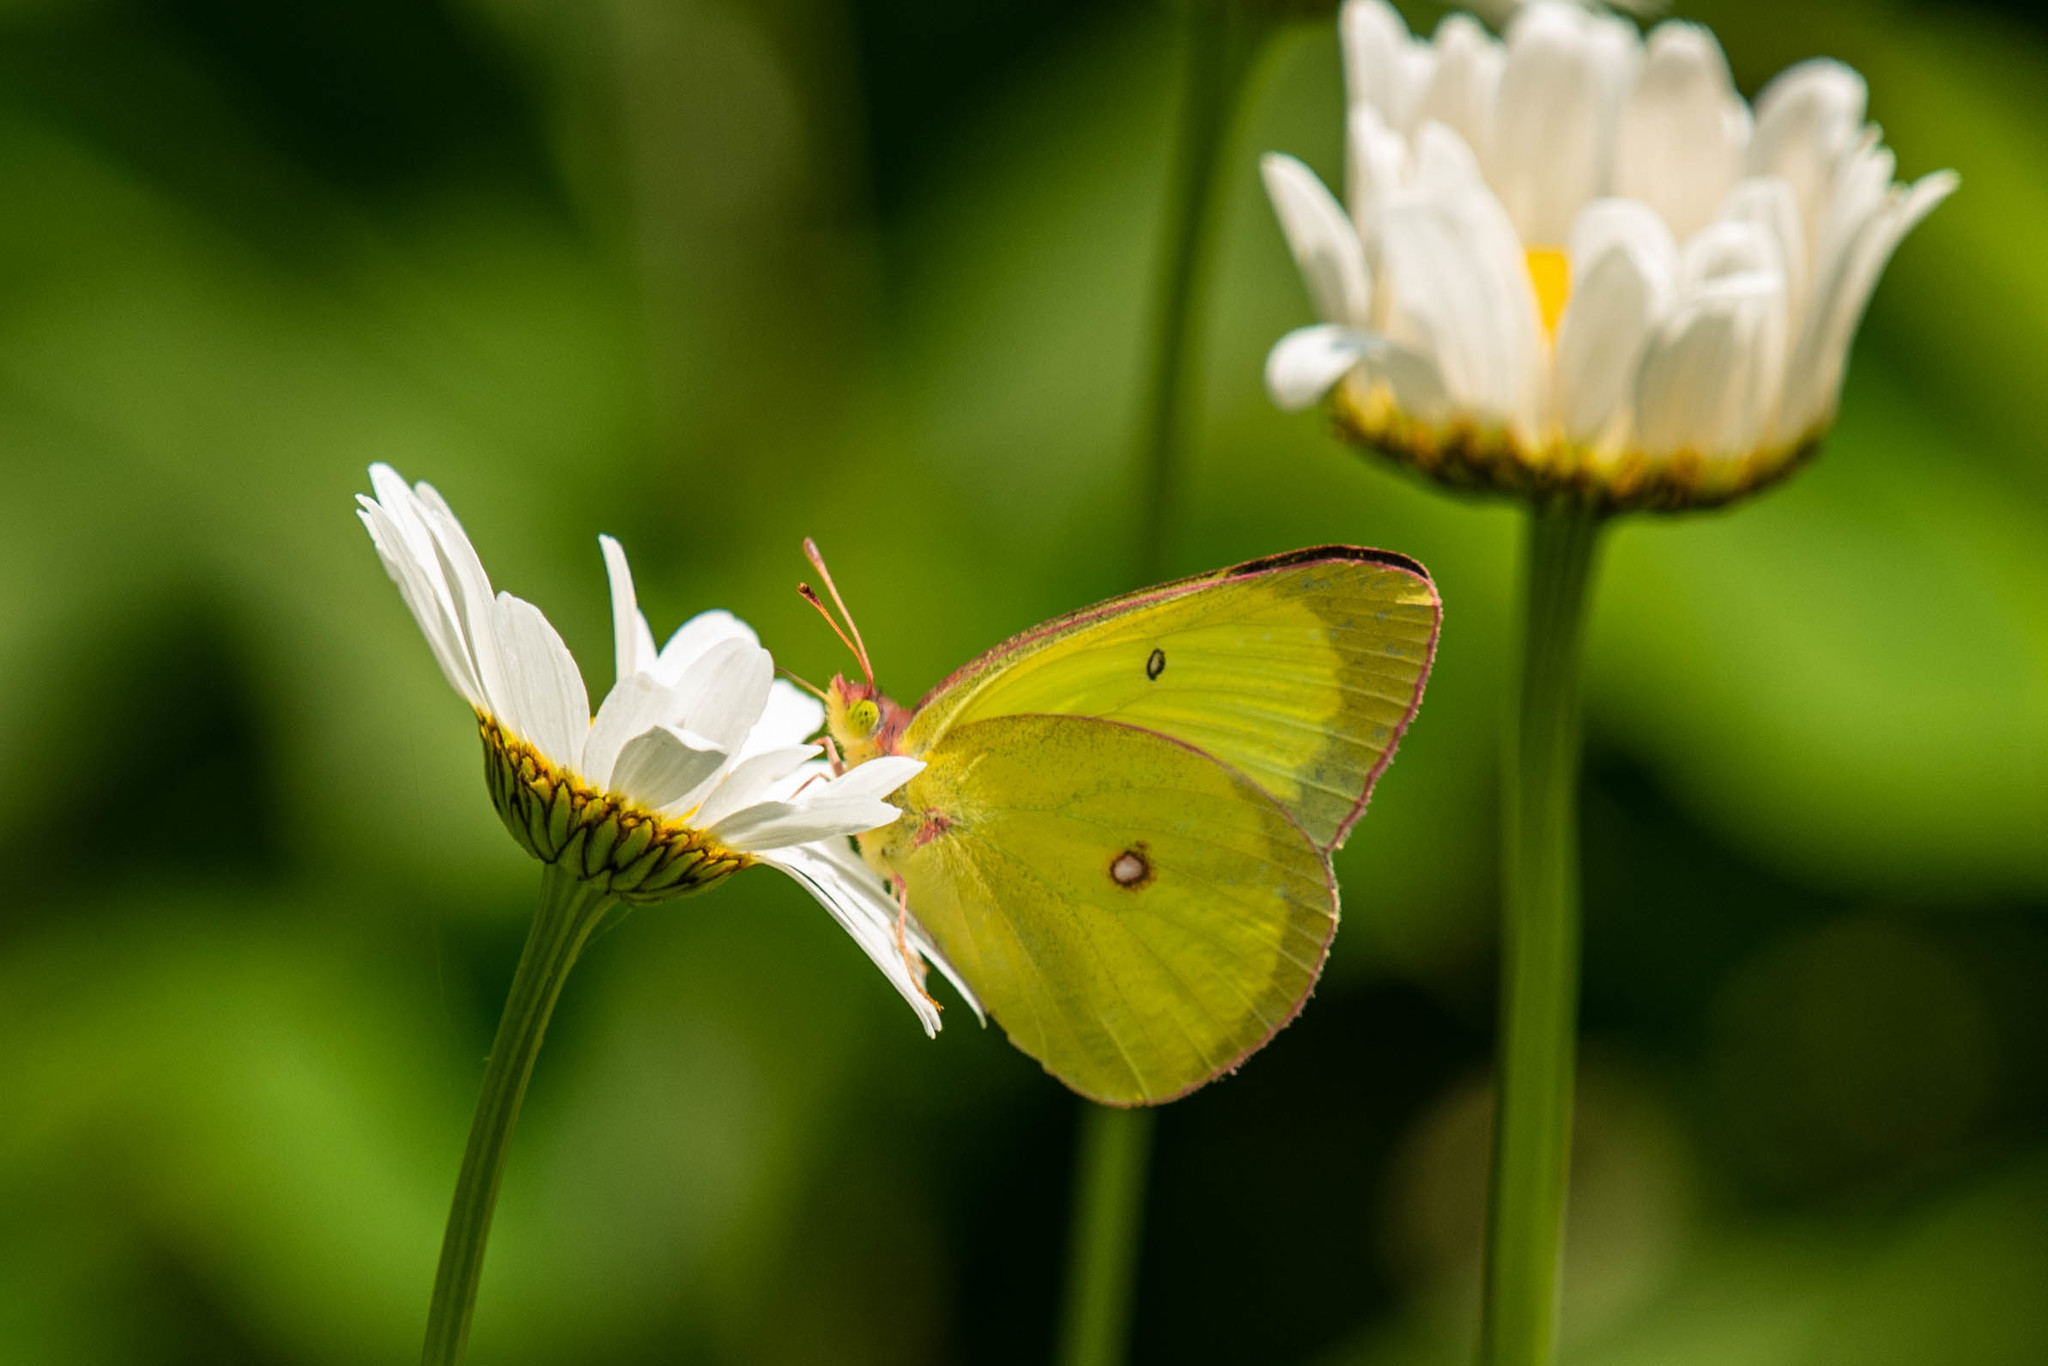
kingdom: Animalia
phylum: Arthropoda
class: Insecta
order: Lepidoptera
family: Pieridae
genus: Colias
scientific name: Colias interior
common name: Pink-edged sulphur
